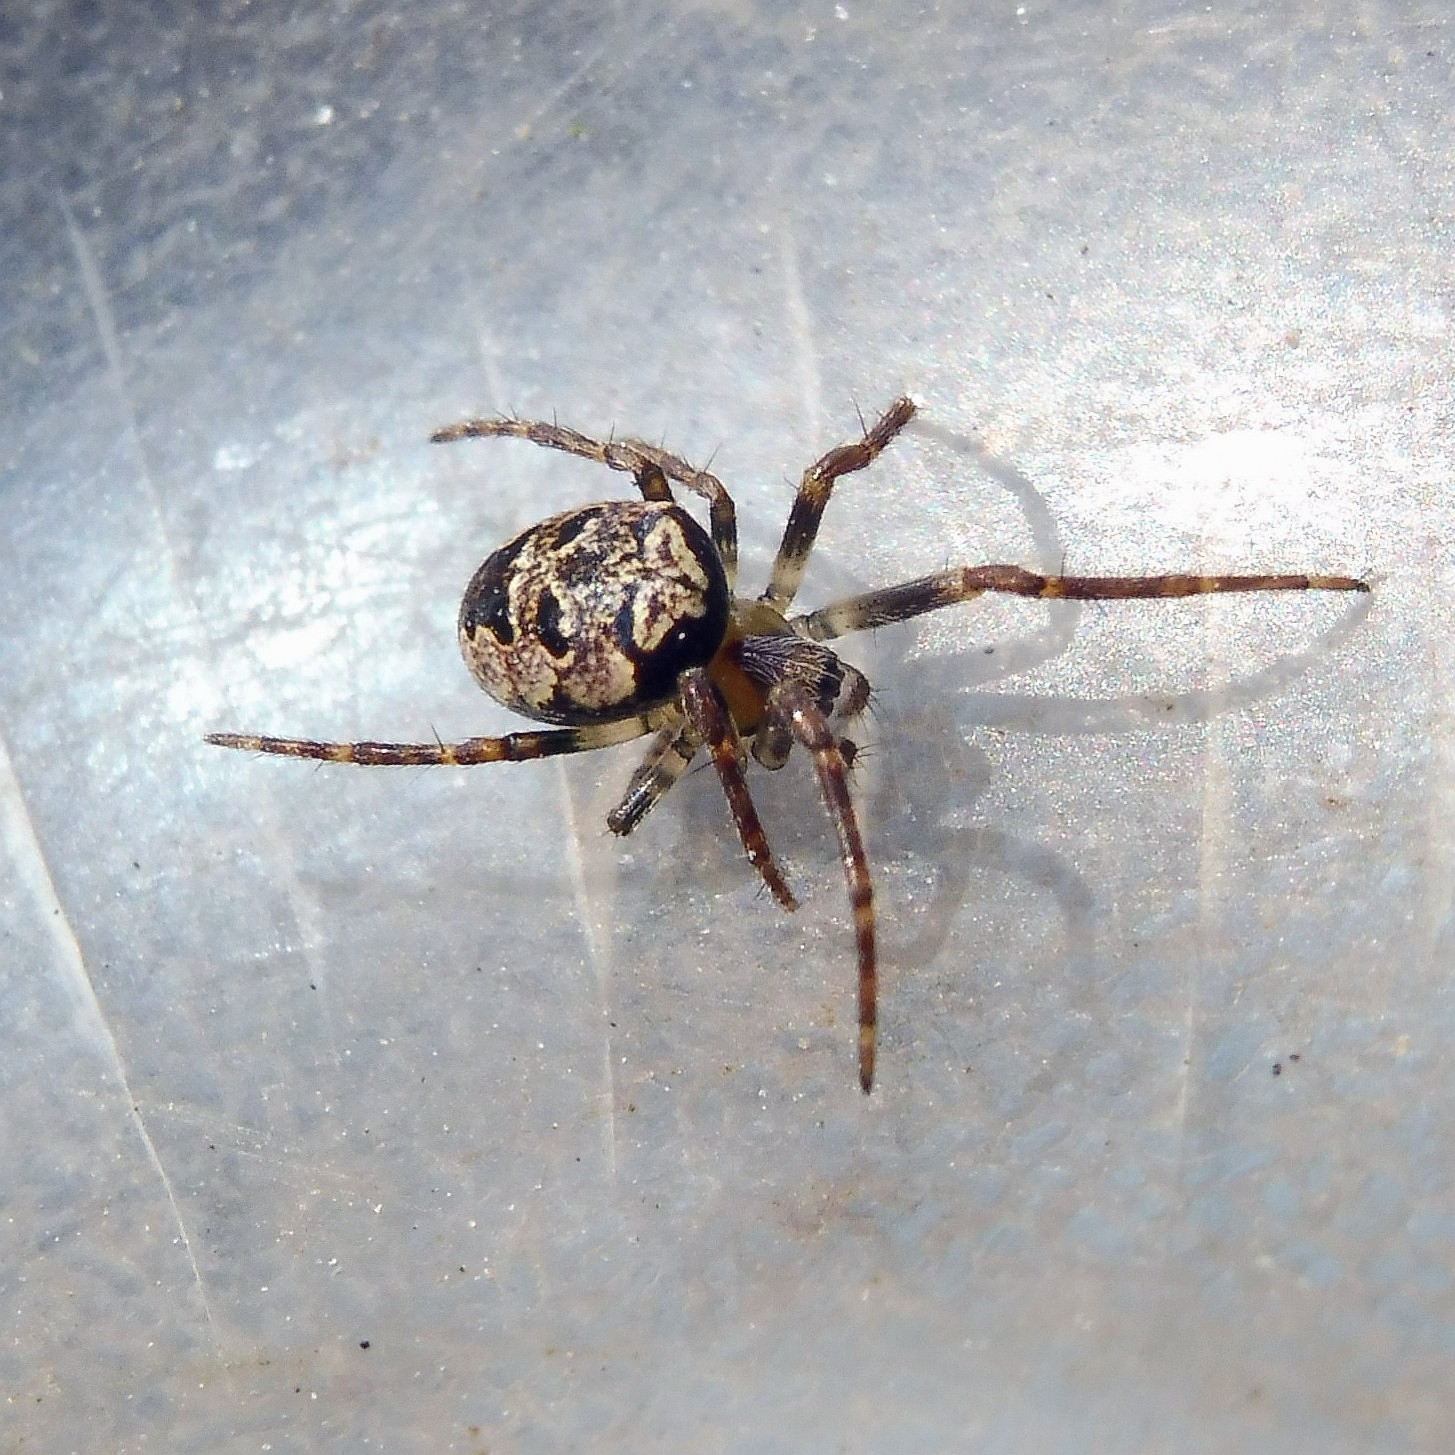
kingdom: Animalia
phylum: Arthropoda
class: Arachnida
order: Araneae
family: Araneidae
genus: Zilla
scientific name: Zilla diodia
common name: Zilla diodia
